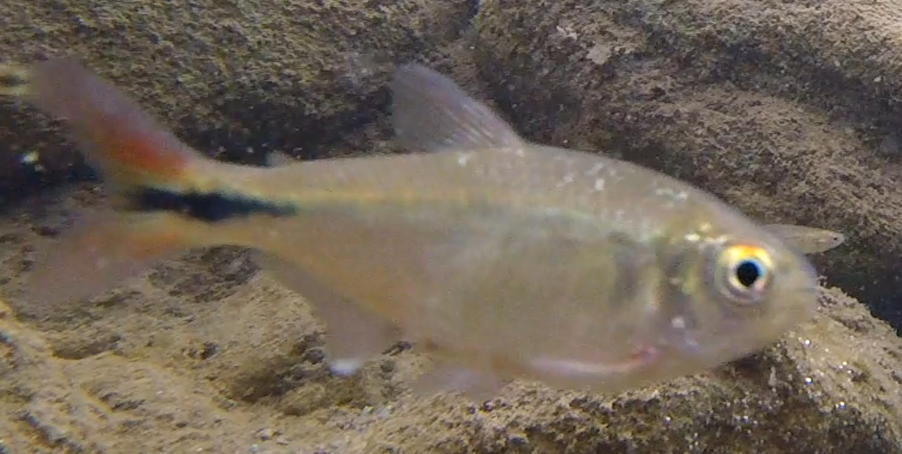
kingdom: Animalia
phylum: Chordata
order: Characiformes
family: Characidae
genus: Astyanax
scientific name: Astyanax eigenmanniorum
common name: Tetra
